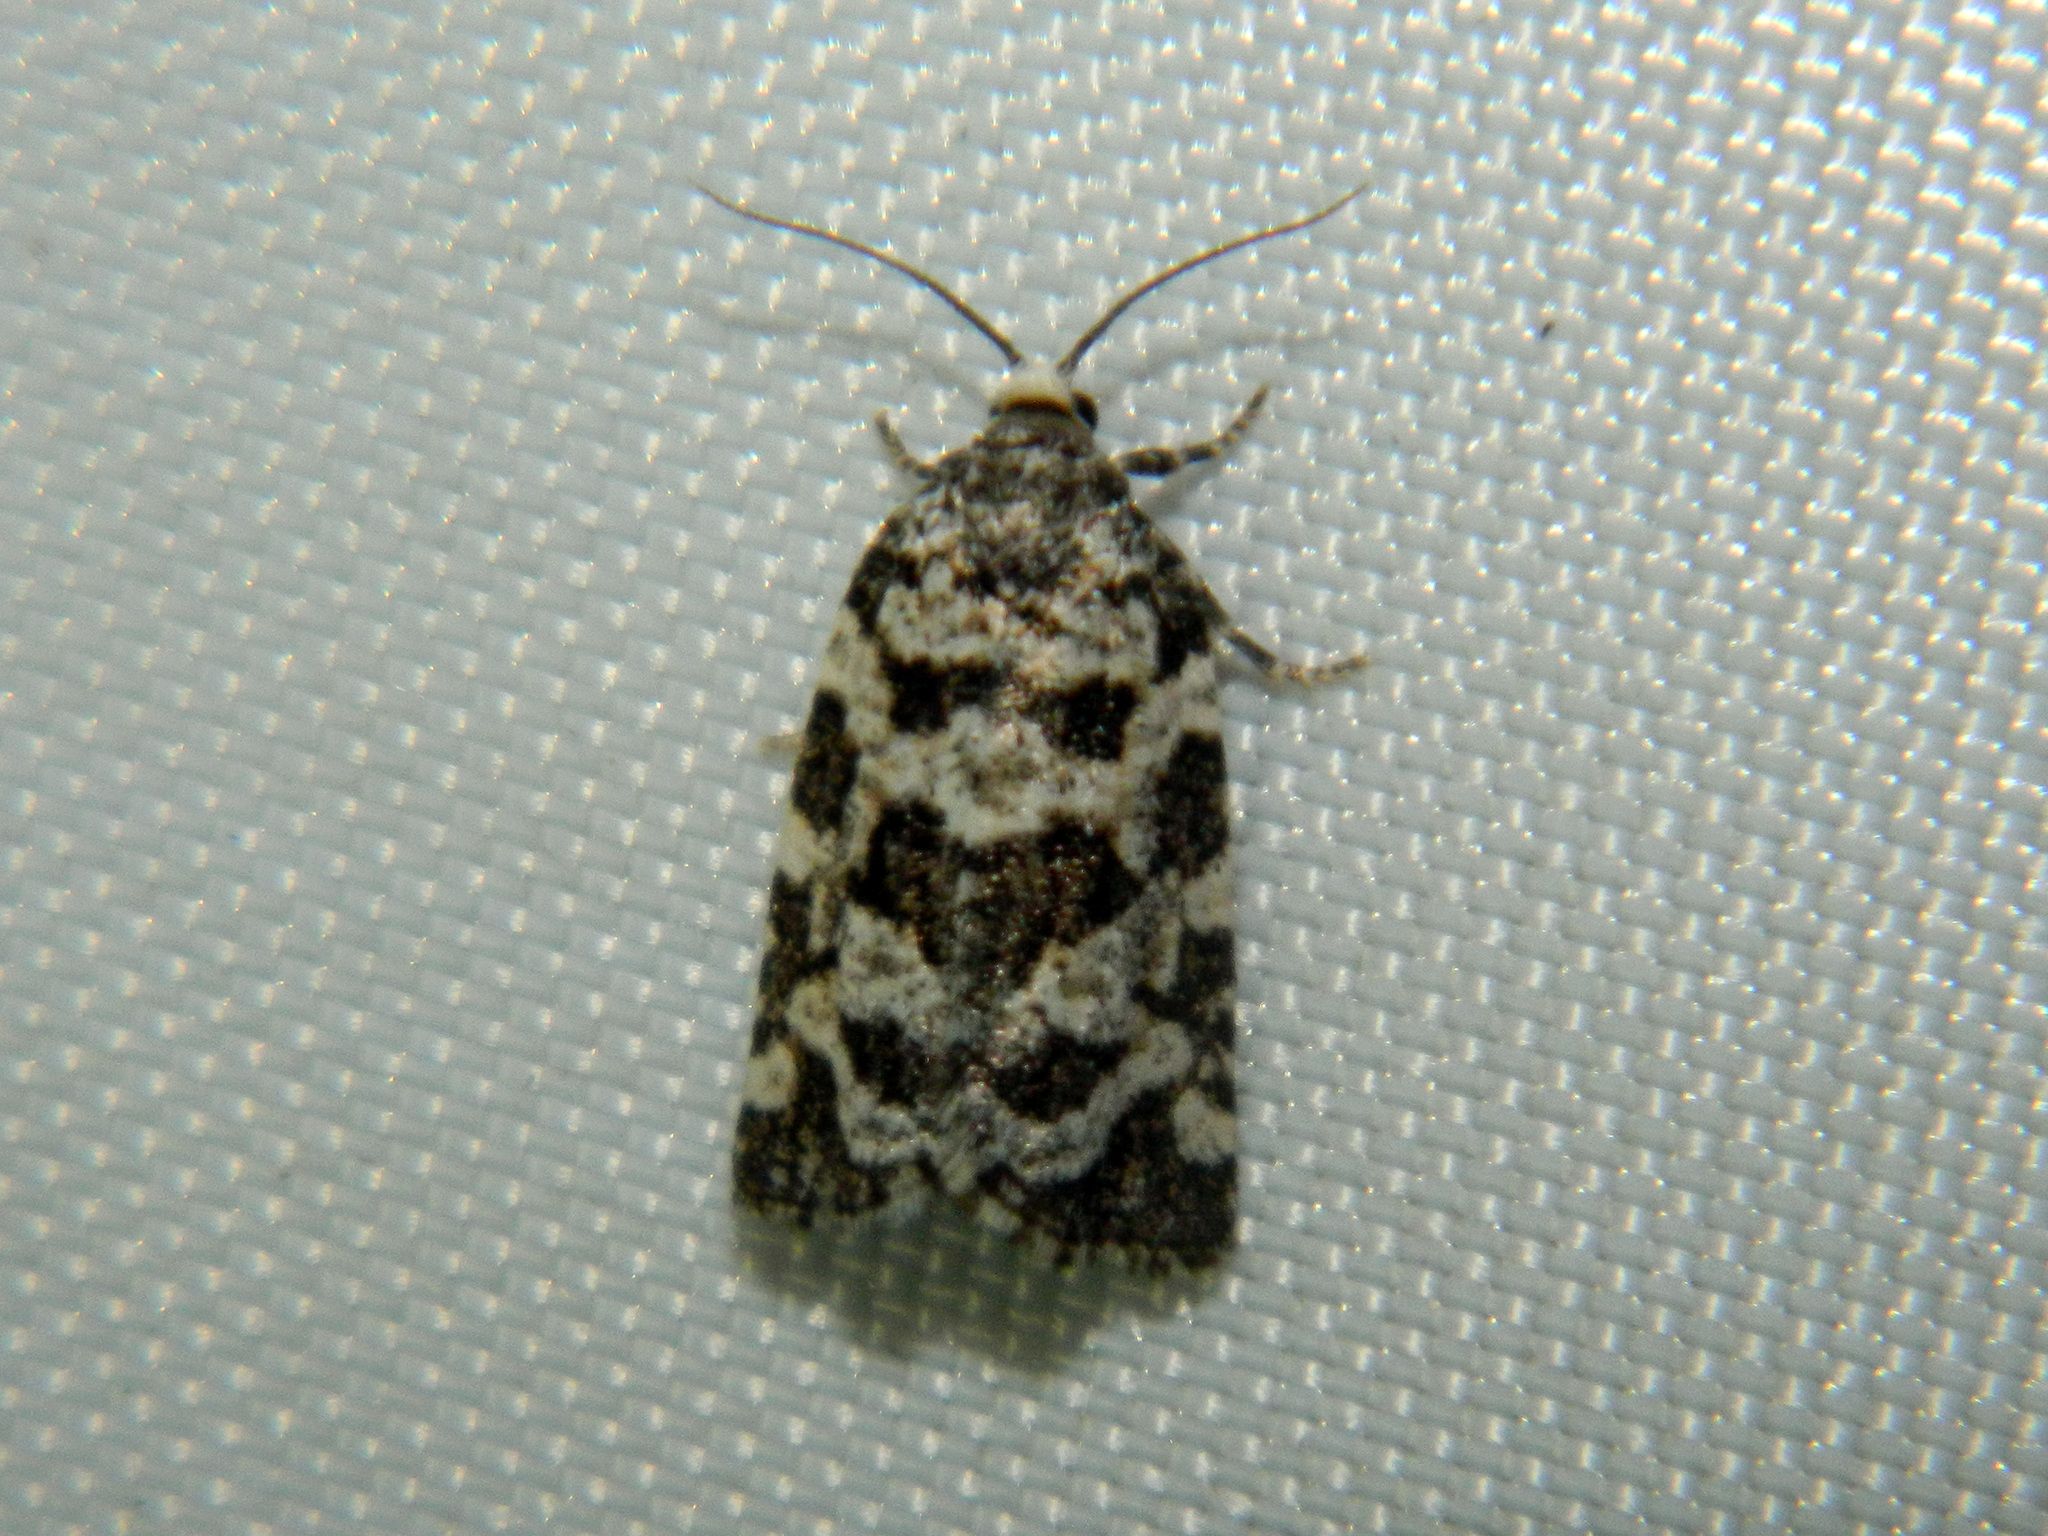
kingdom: Animalia
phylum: Arthropoda
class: Insecta
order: Lepidoptera
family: Tortricidae
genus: Archips
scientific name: Archips packardiana
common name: Spring spruce needle moth
